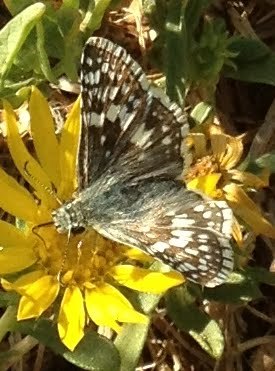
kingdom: Animalia
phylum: Arthropoda
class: Insecta
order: Lepidoptera
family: Hesperiidae
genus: Burnsius
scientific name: Burnsius communis
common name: Common checkered-skipper
